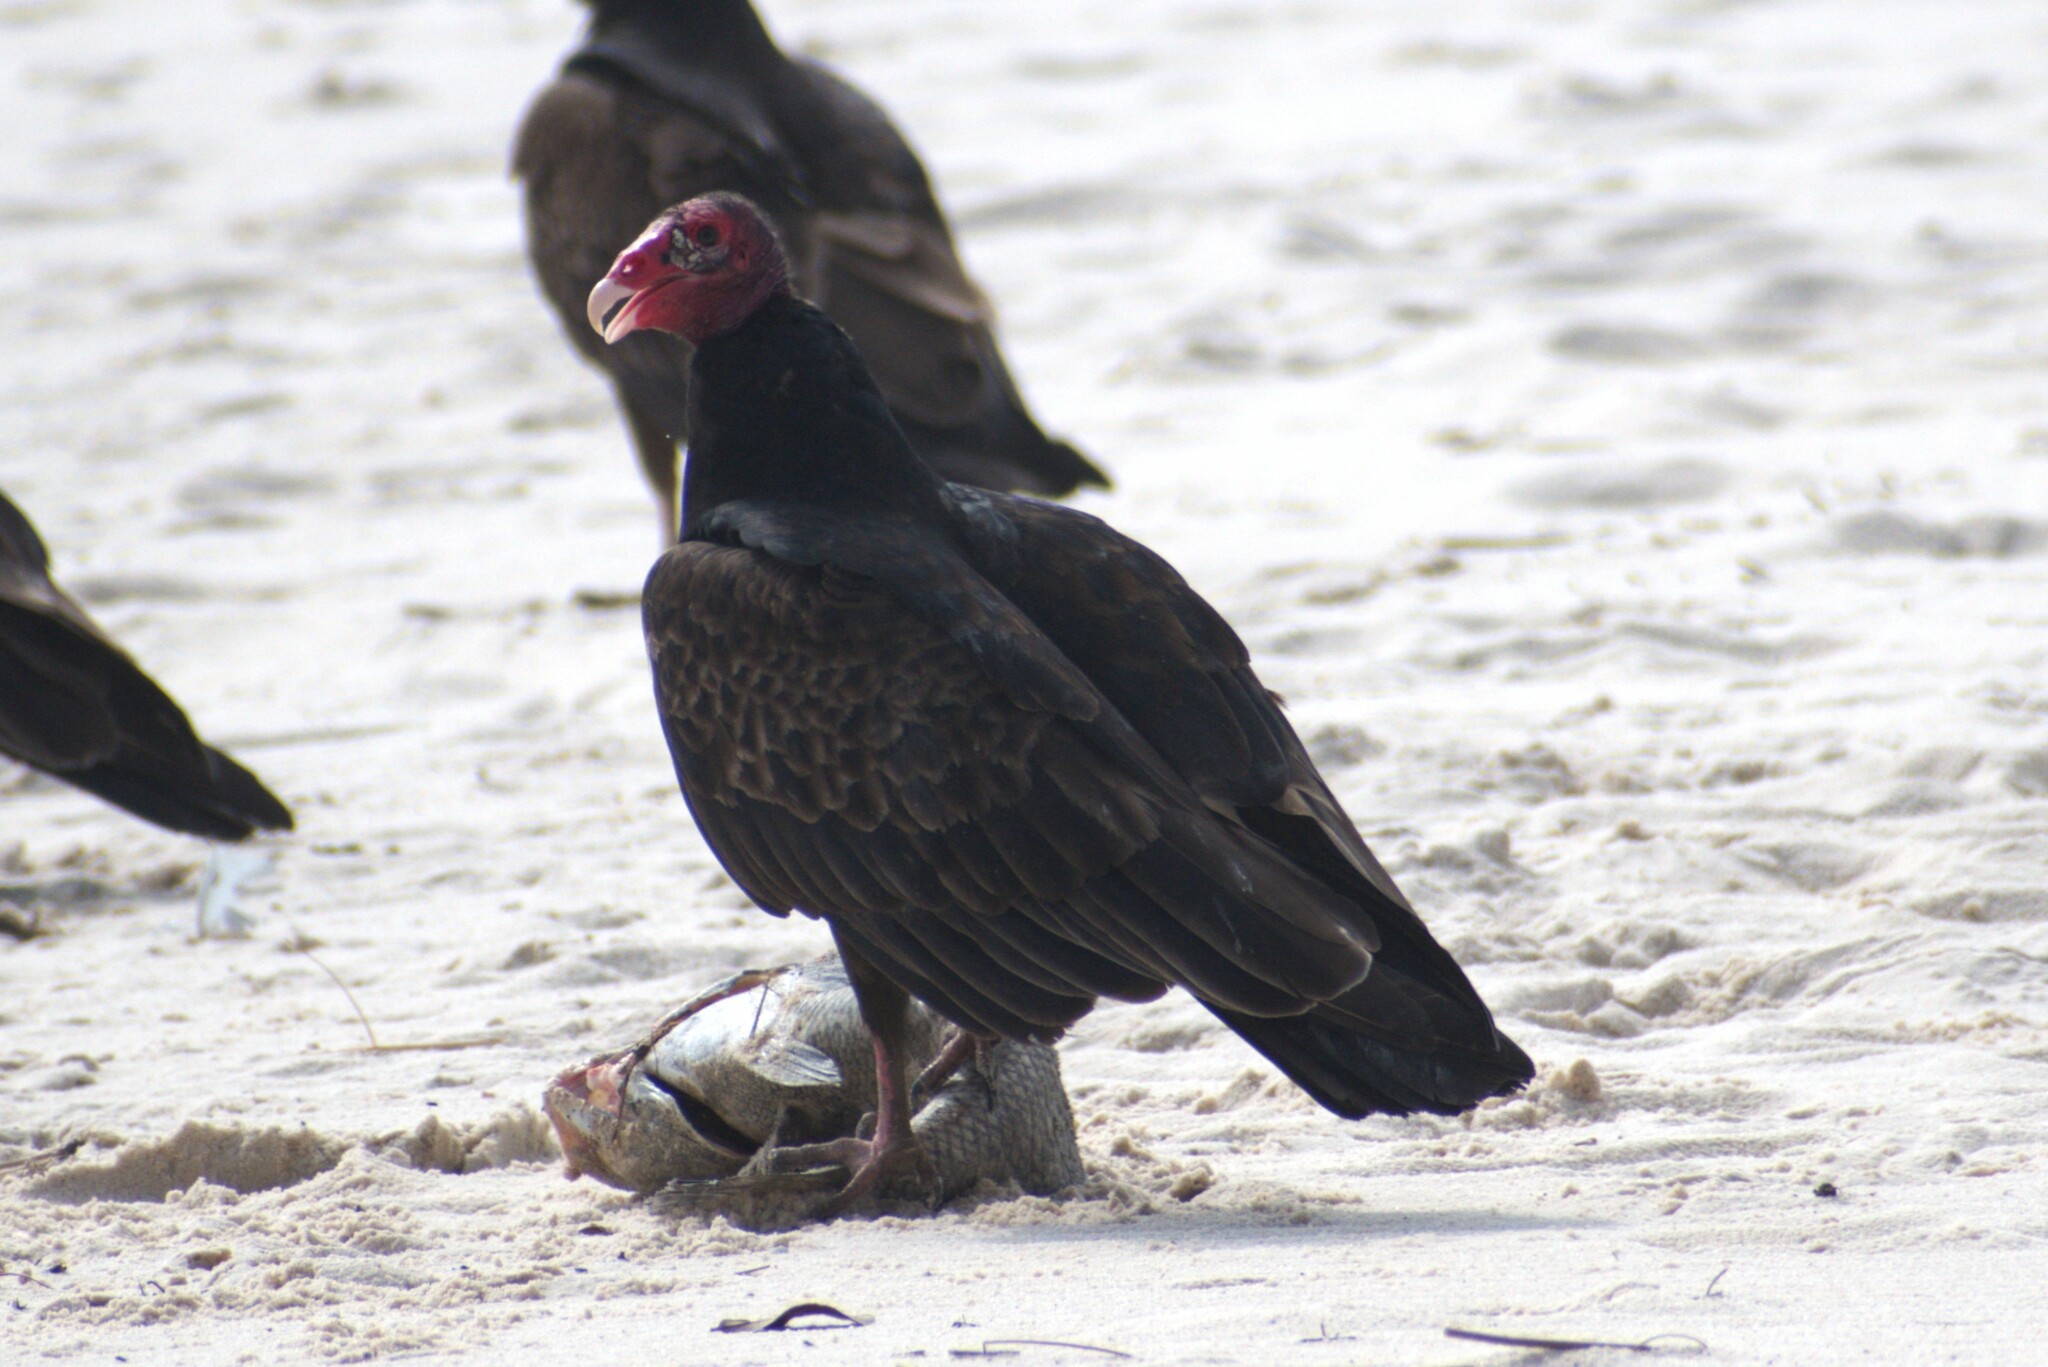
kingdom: Animalia
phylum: Chordata
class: Aves
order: Accipitriformes
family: Cathartidae
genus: Cathartes
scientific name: Cathartes aura
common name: Turkey vulture
